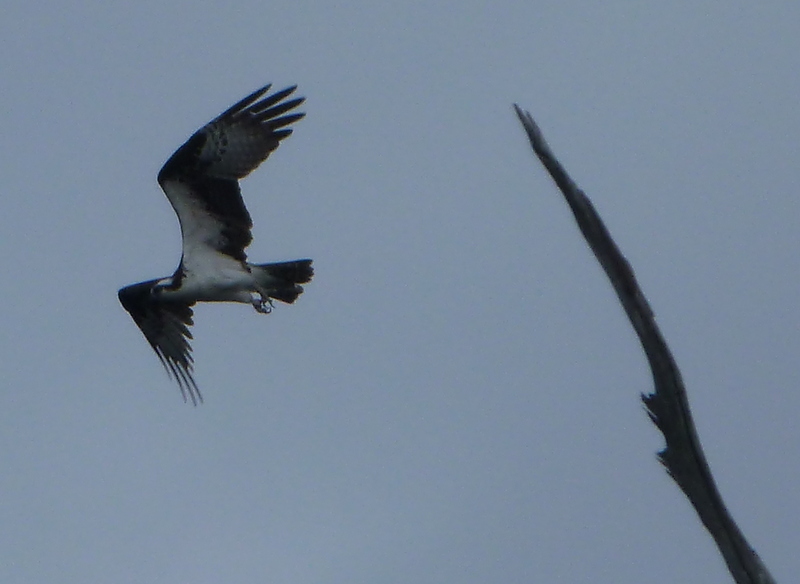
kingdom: Animalia
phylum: Chordata
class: Aves
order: Accipitriformes
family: Pandionidae
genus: Pandion
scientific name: Pandion haliaetus
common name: Osprey
